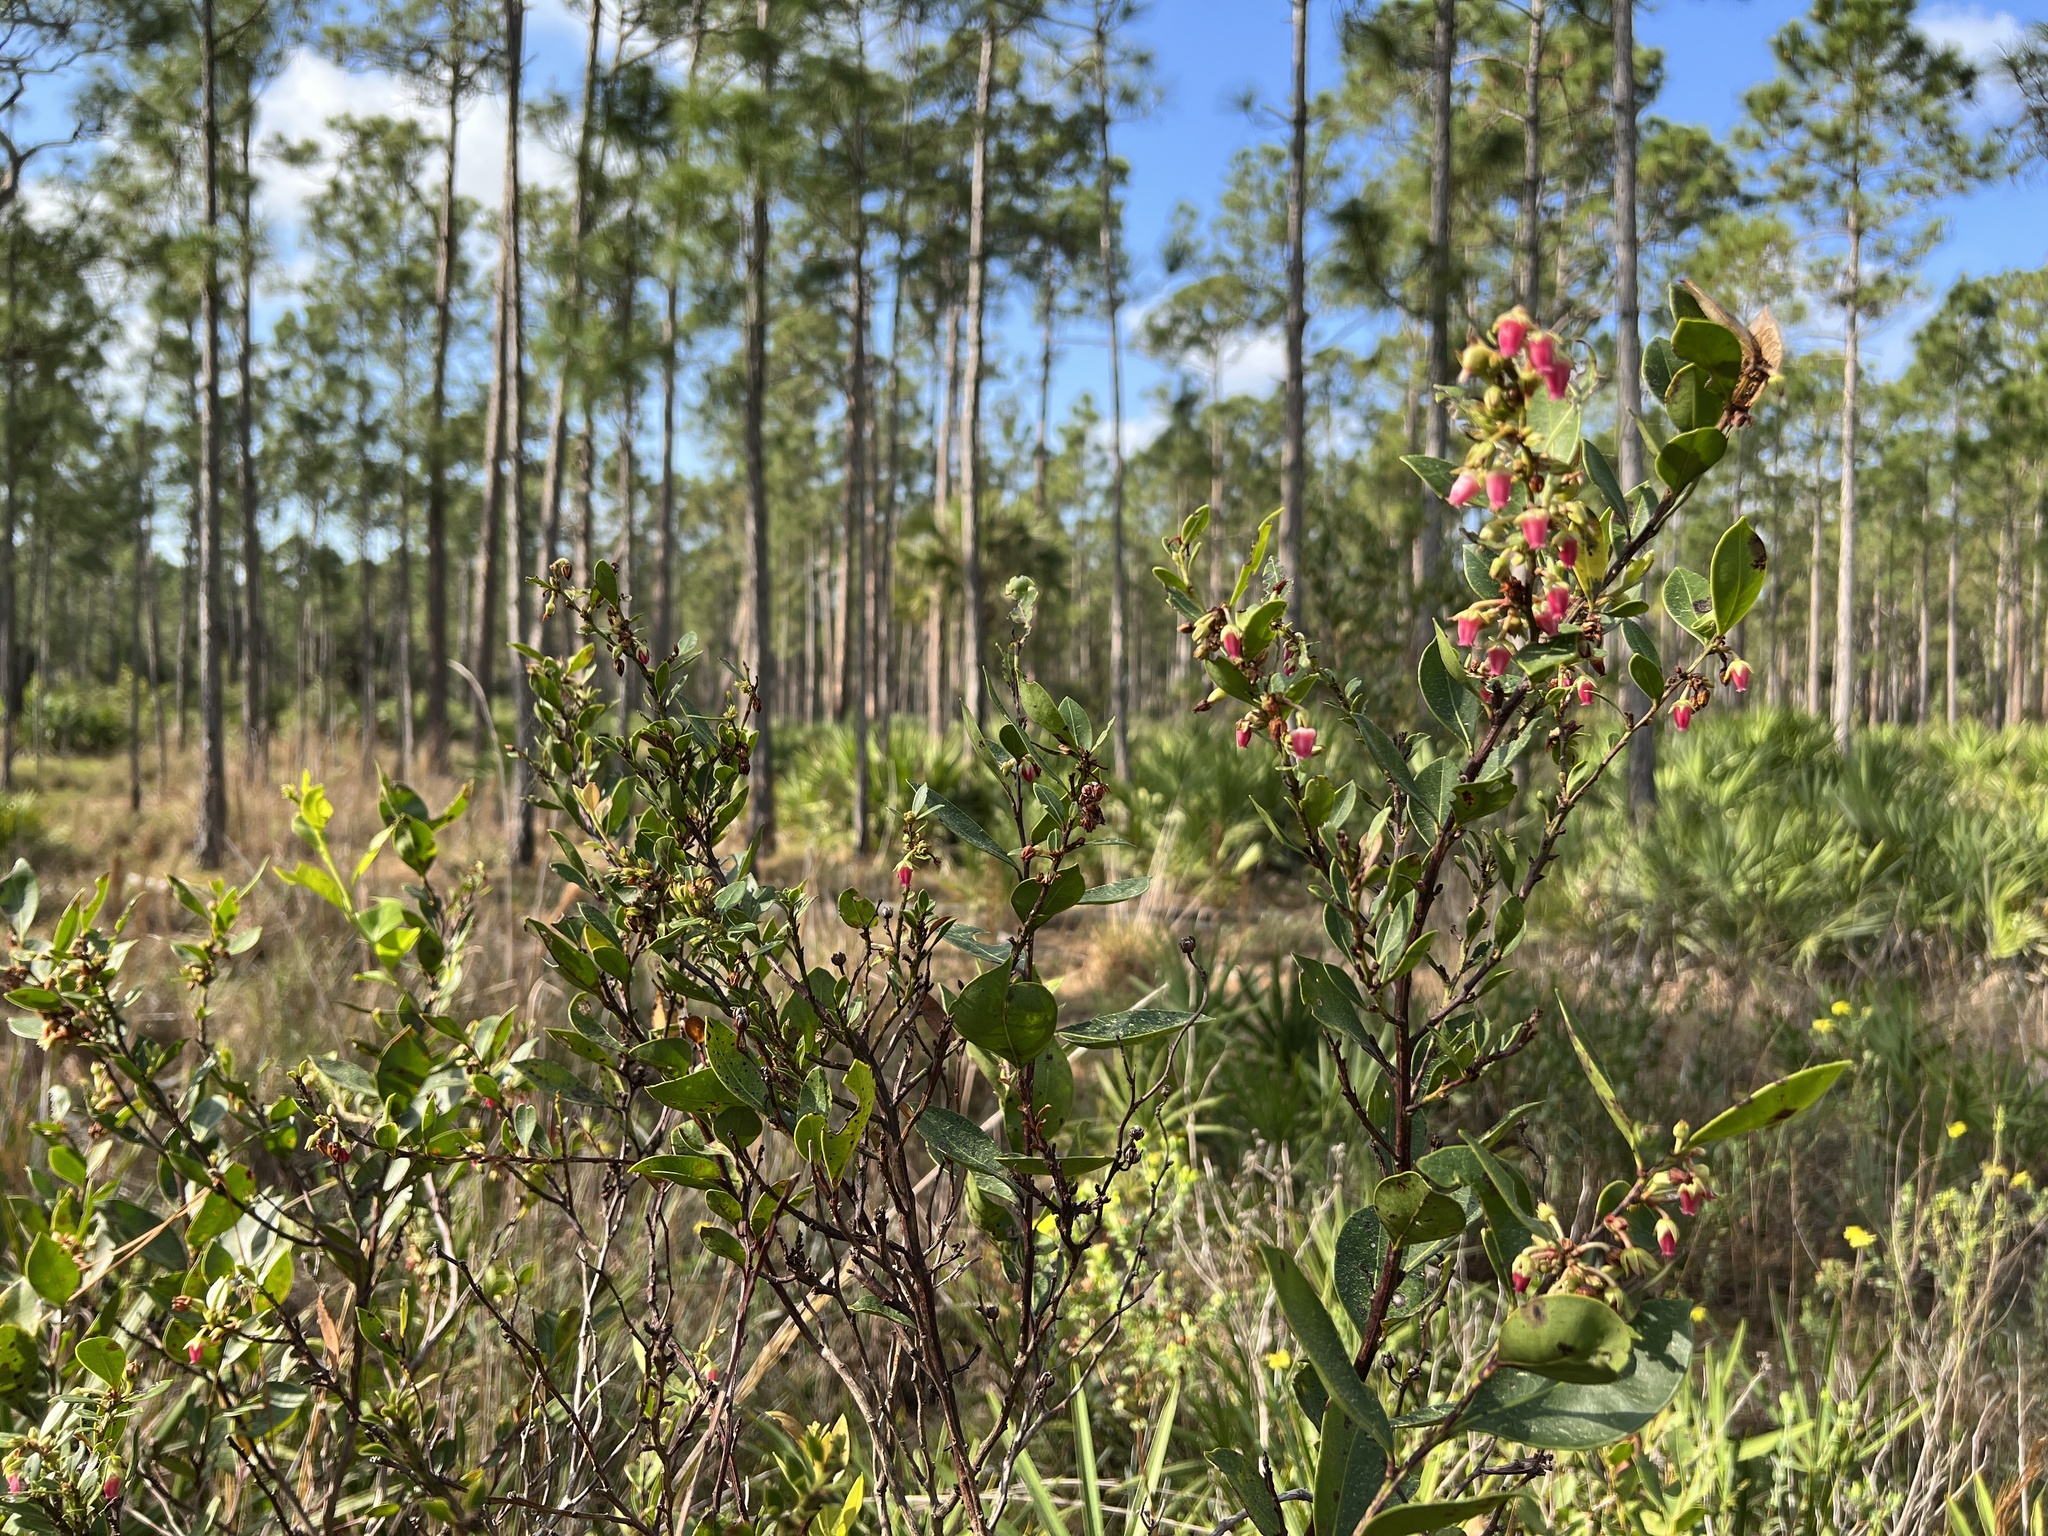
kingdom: Plantae
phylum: Tracheophyta
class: Magnoliopsida
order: Ericales
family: Ericaceae
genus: Lyonia
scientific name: Lyonia lucida
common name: Fetterbush
